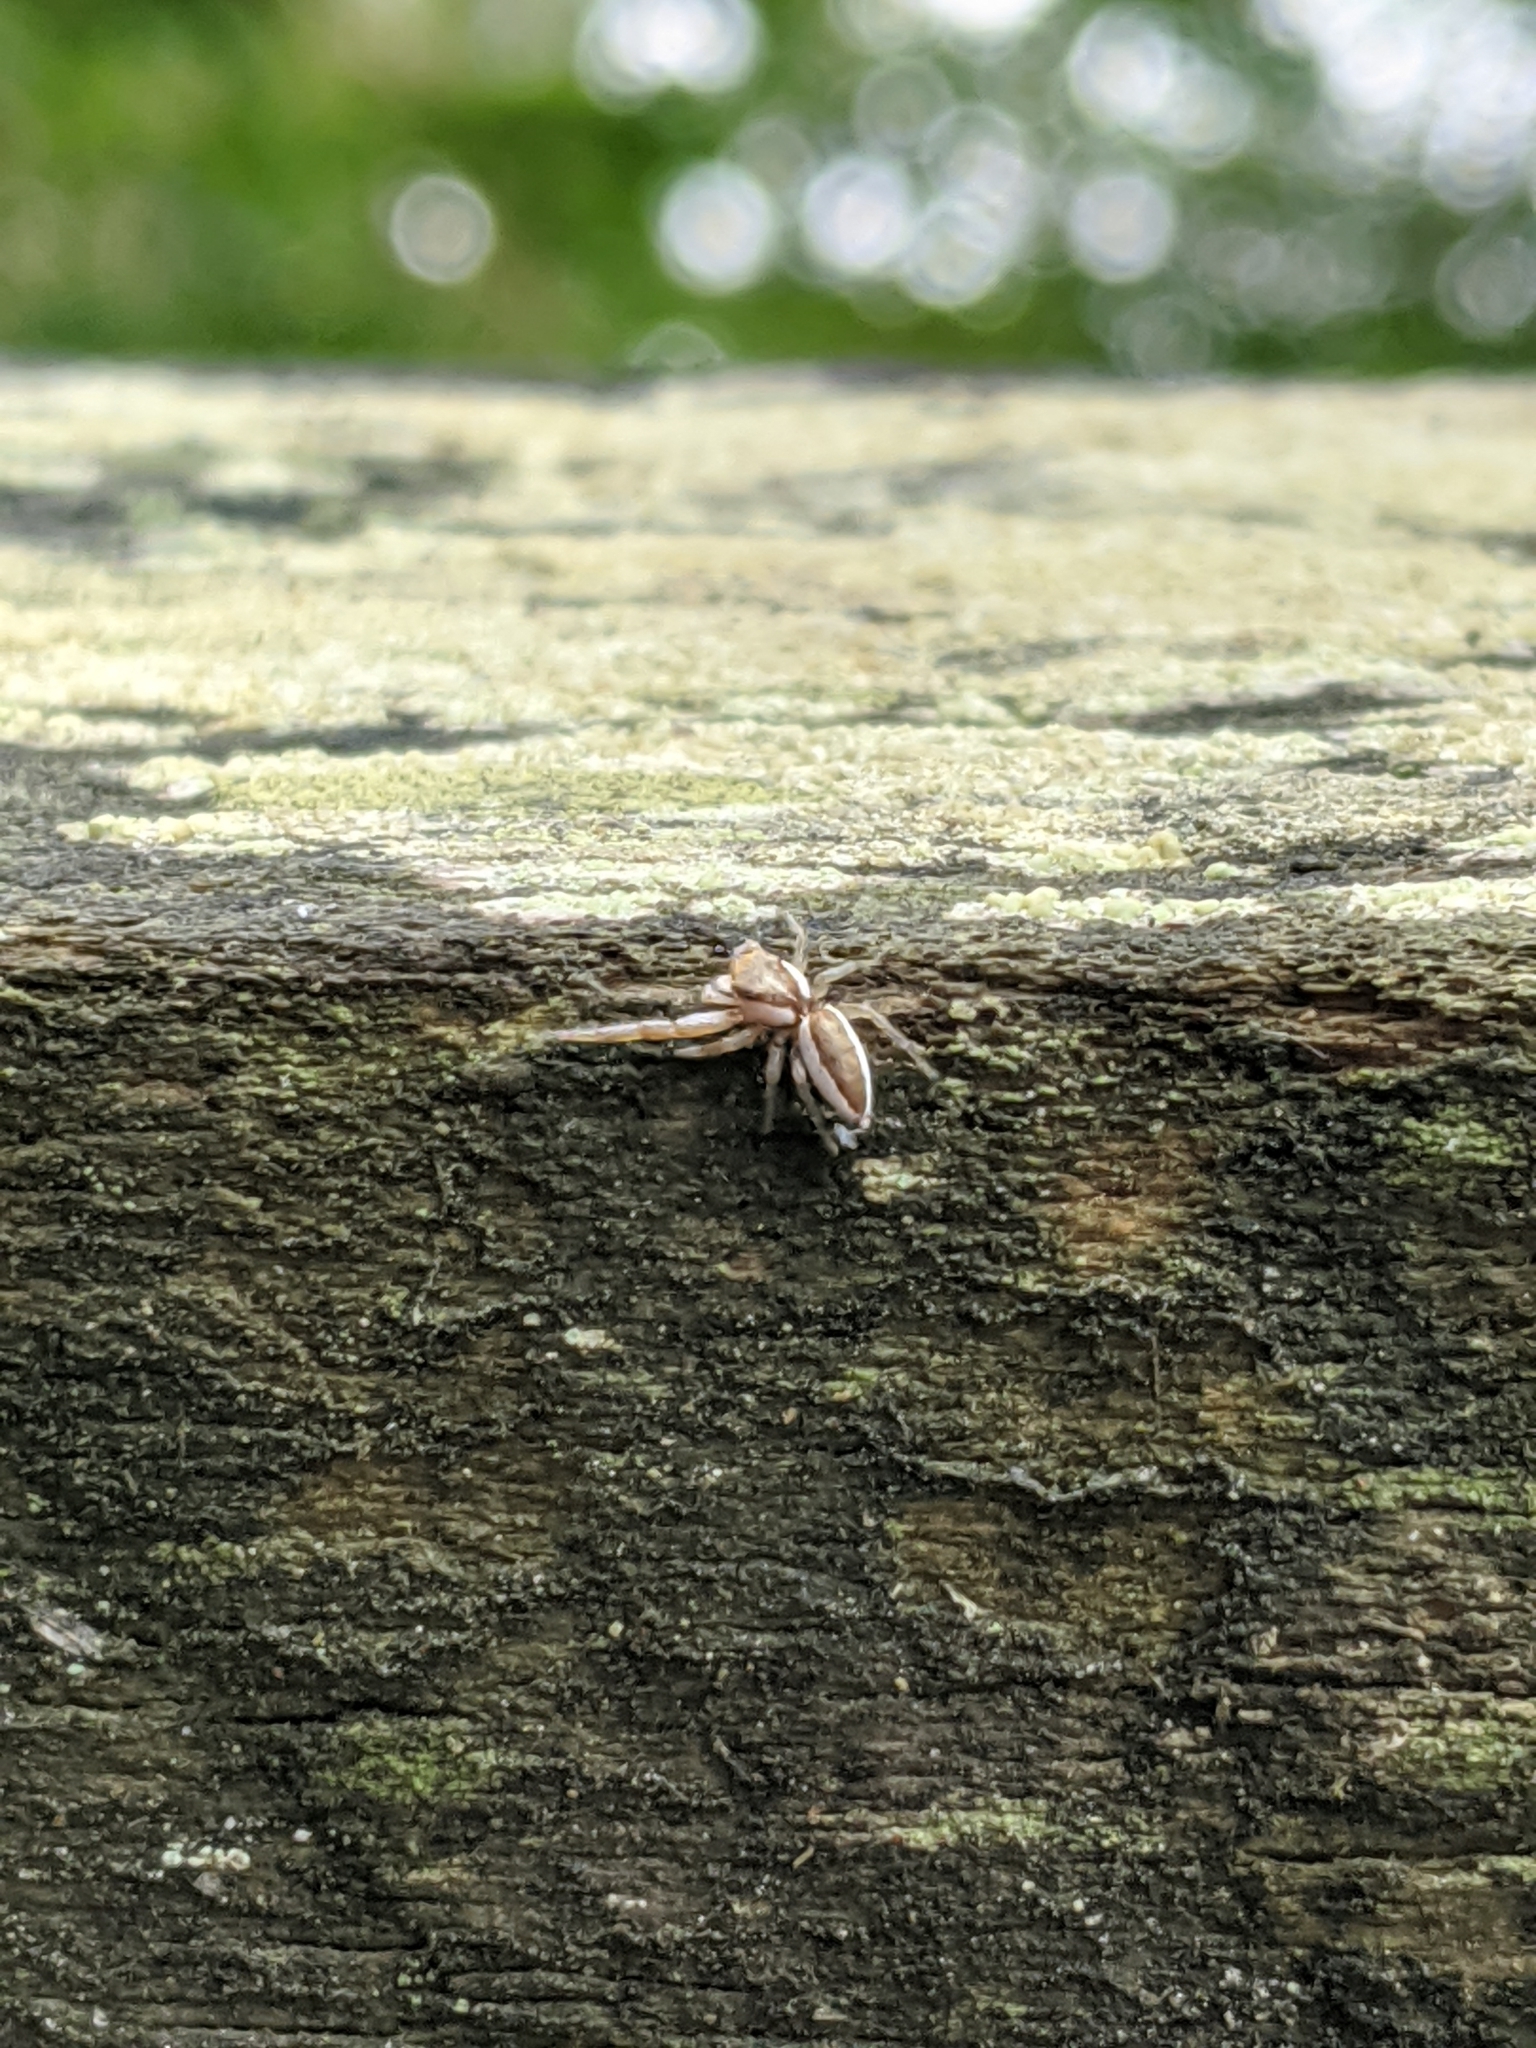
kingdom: Animalia
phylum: Arthropoda
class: Arachnida
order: Araneae
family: Salticidae
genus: Hentzia
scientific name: Hentzia palmarum
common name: Common hentz jumping spider
